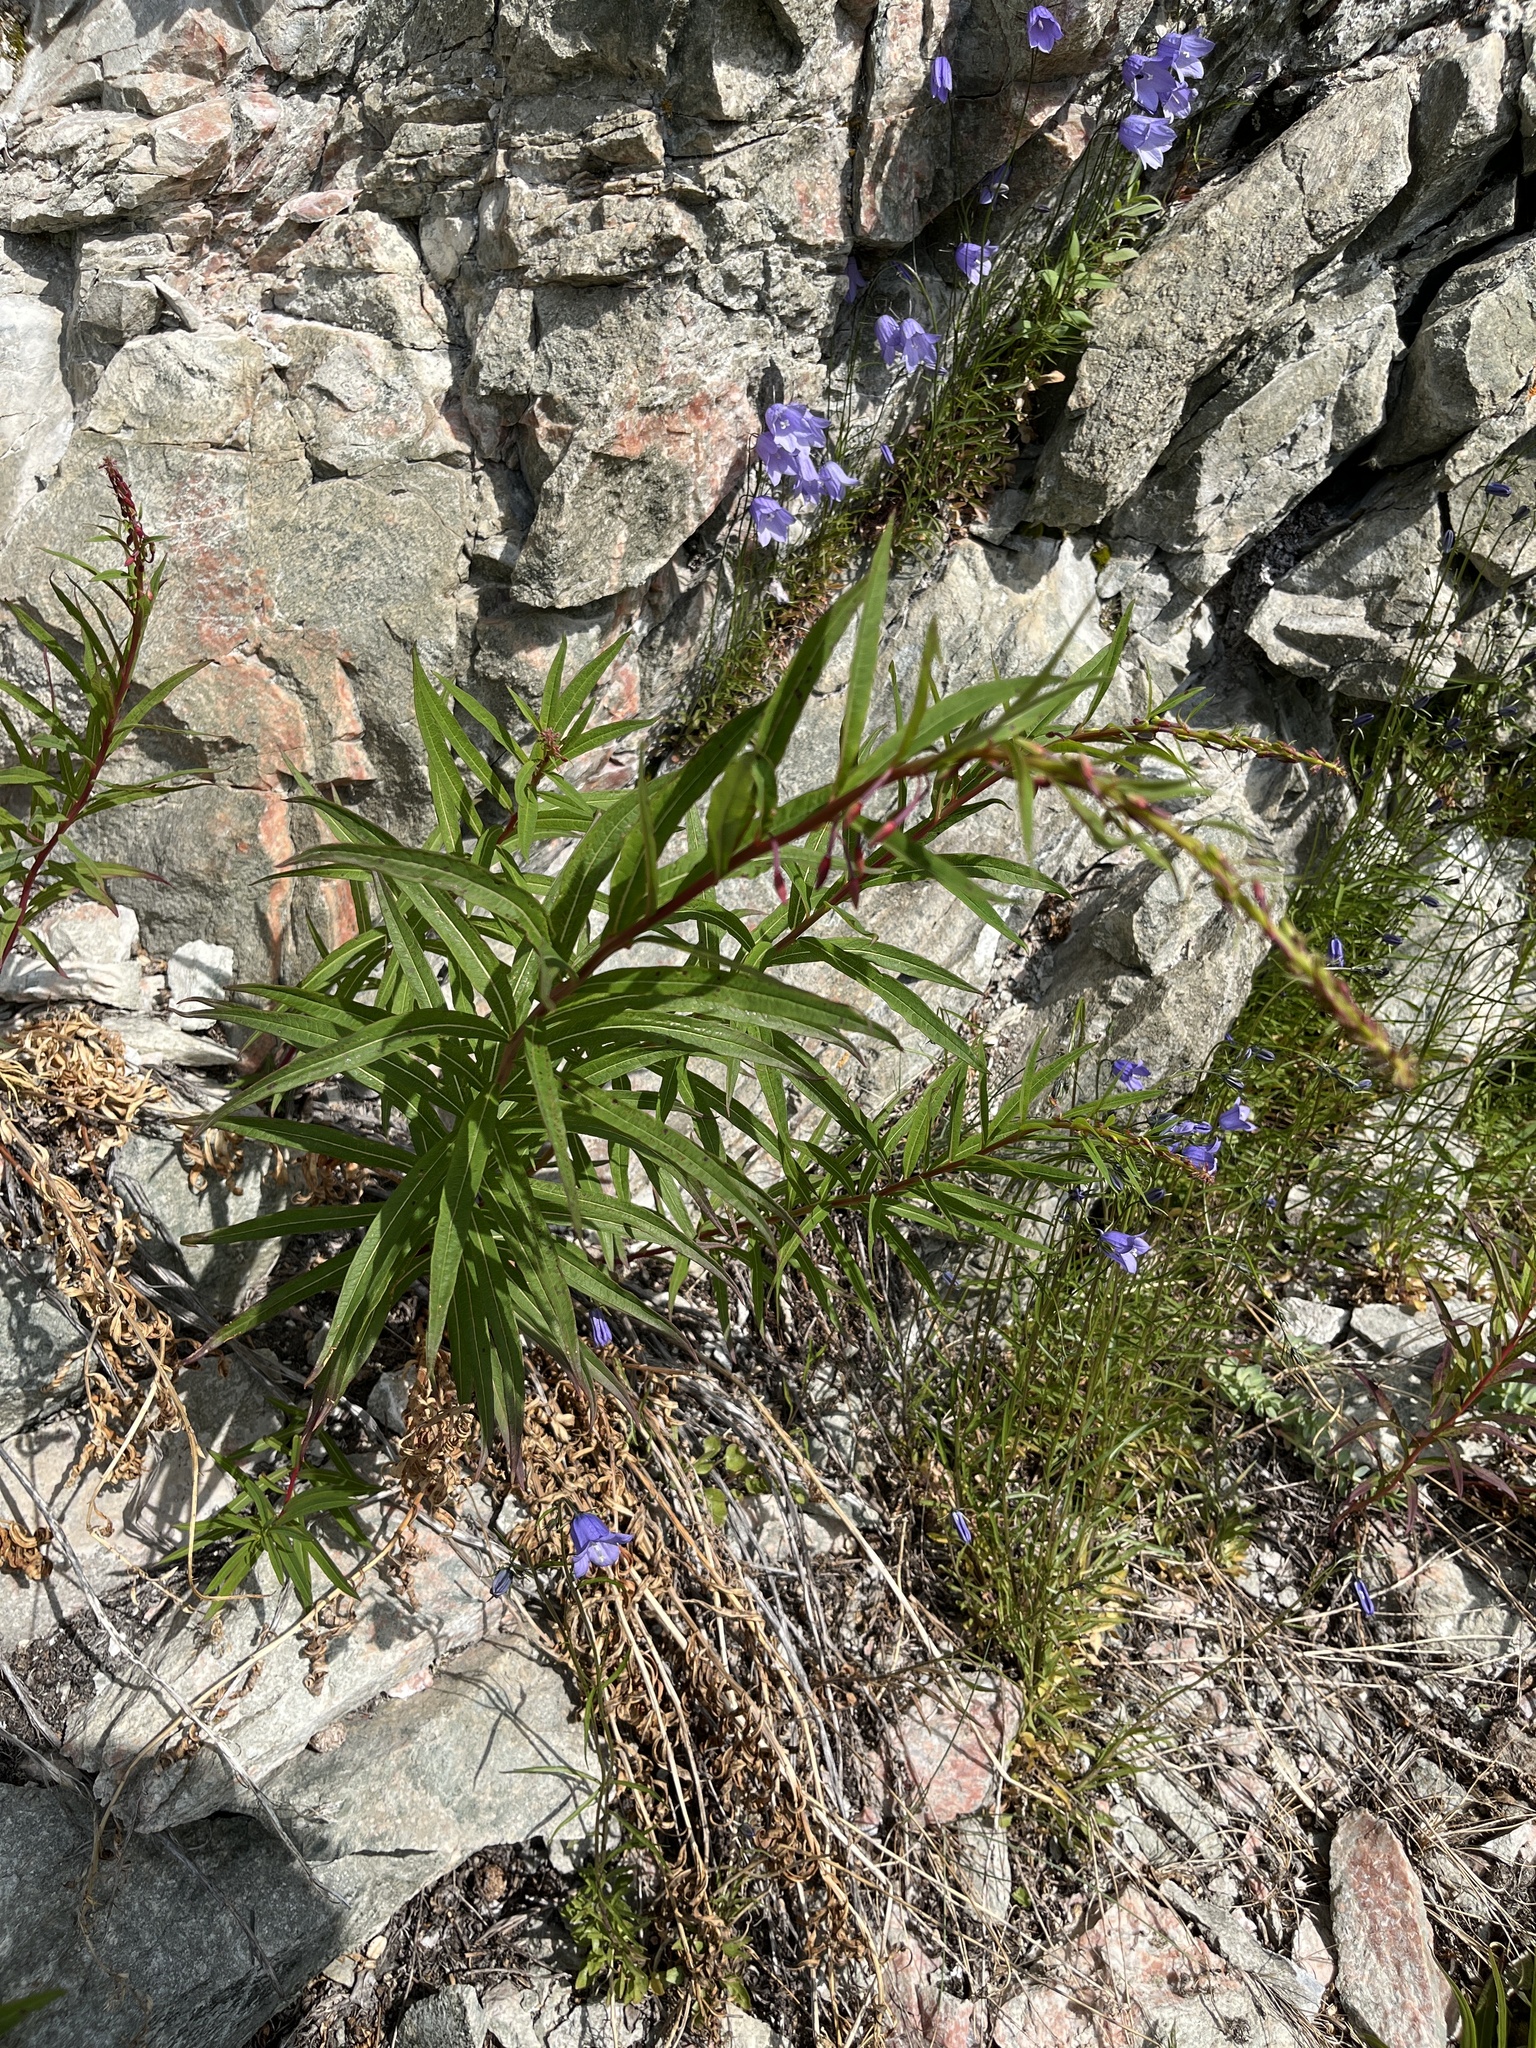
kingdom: Plantae
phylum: Tracheophyta
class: Magnoliopsida
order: Myrtales
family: Onagraceae
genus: Chamaenerion
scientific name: Chamaenerion angustifolium
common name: Fireweed
